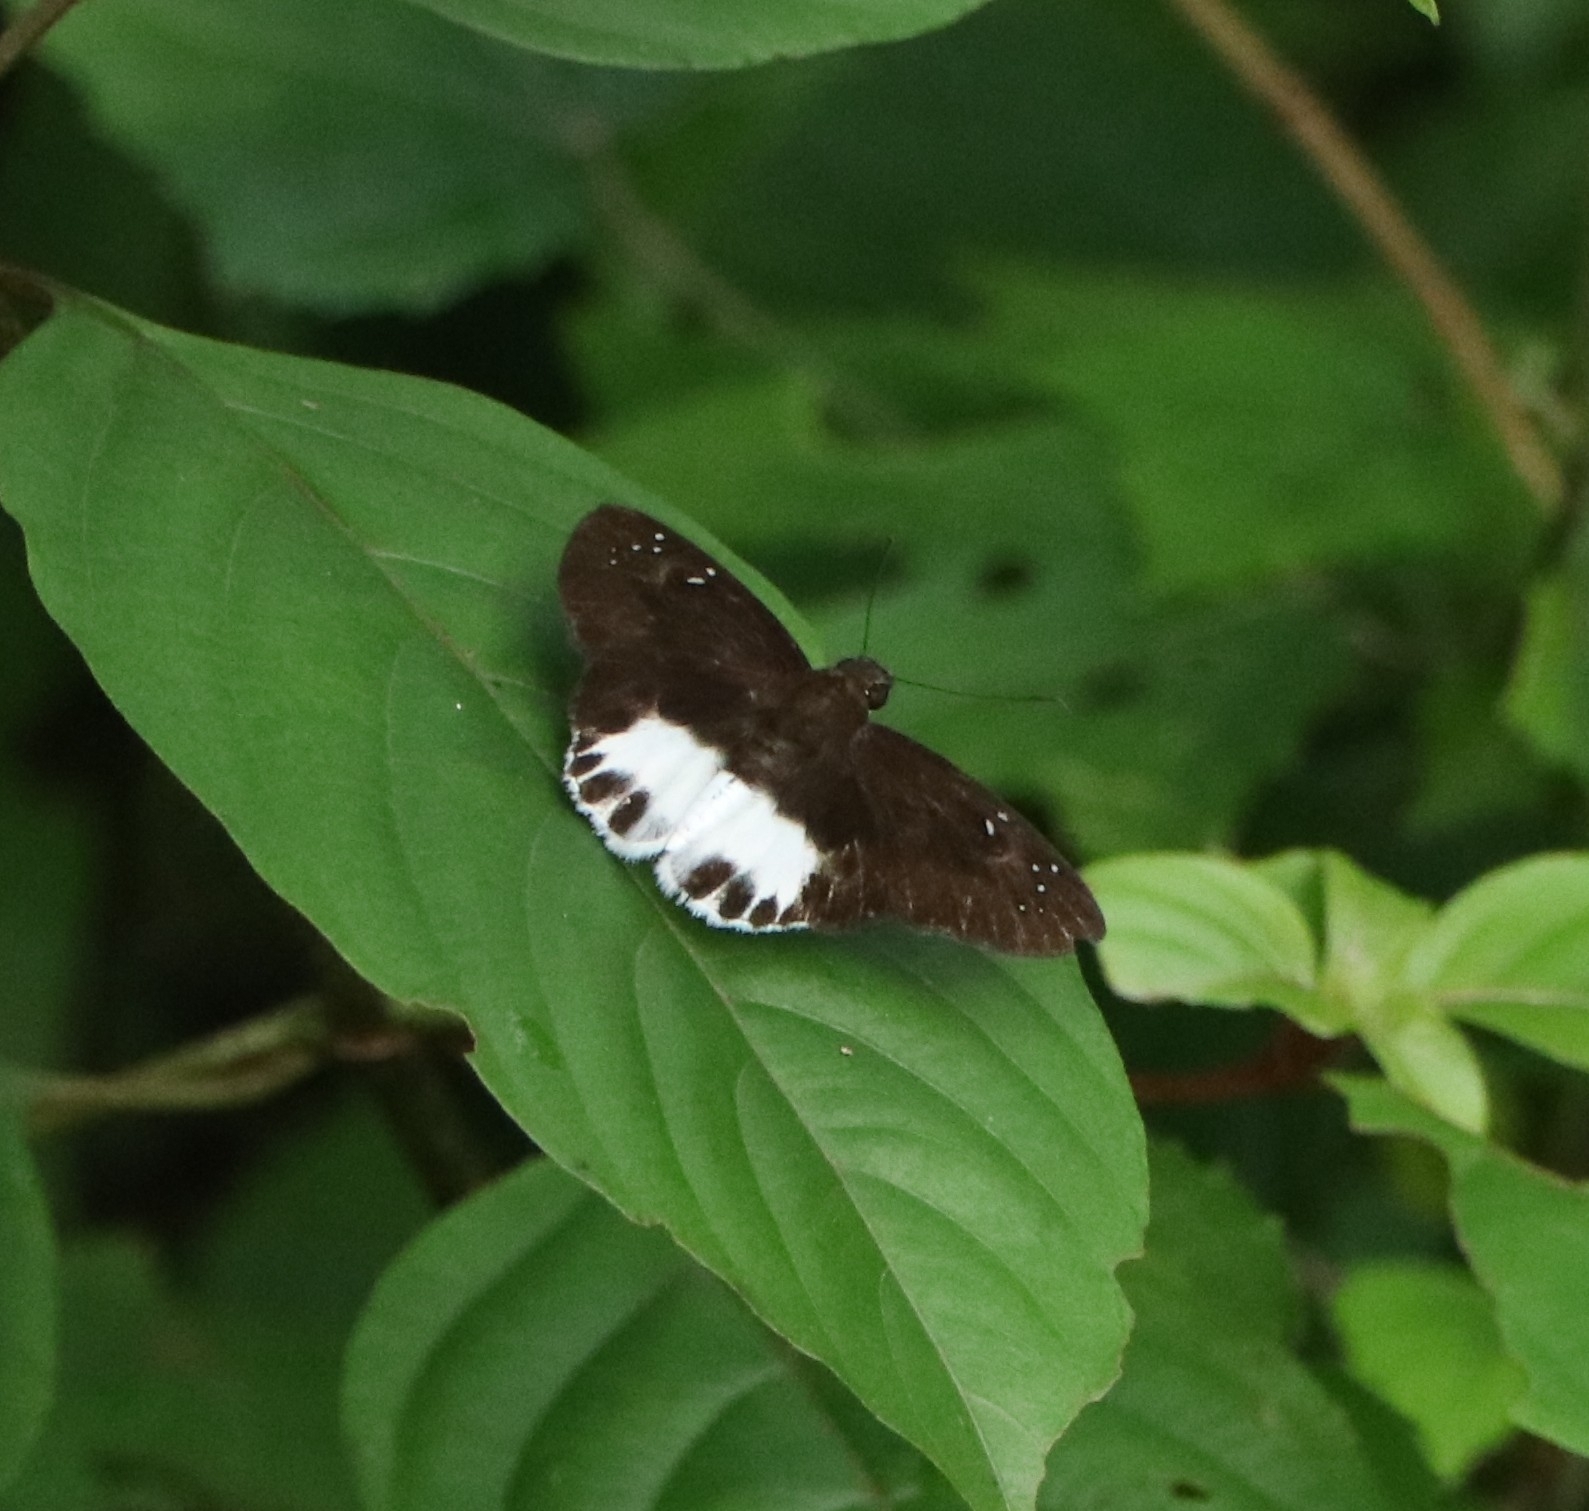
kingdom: Animalia
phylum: Arthropoda
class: Insecta
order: Lepidoptera
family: Hesperiidae
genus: Tagiades
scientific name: Tagiades litigiosa
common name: Water snow flat
